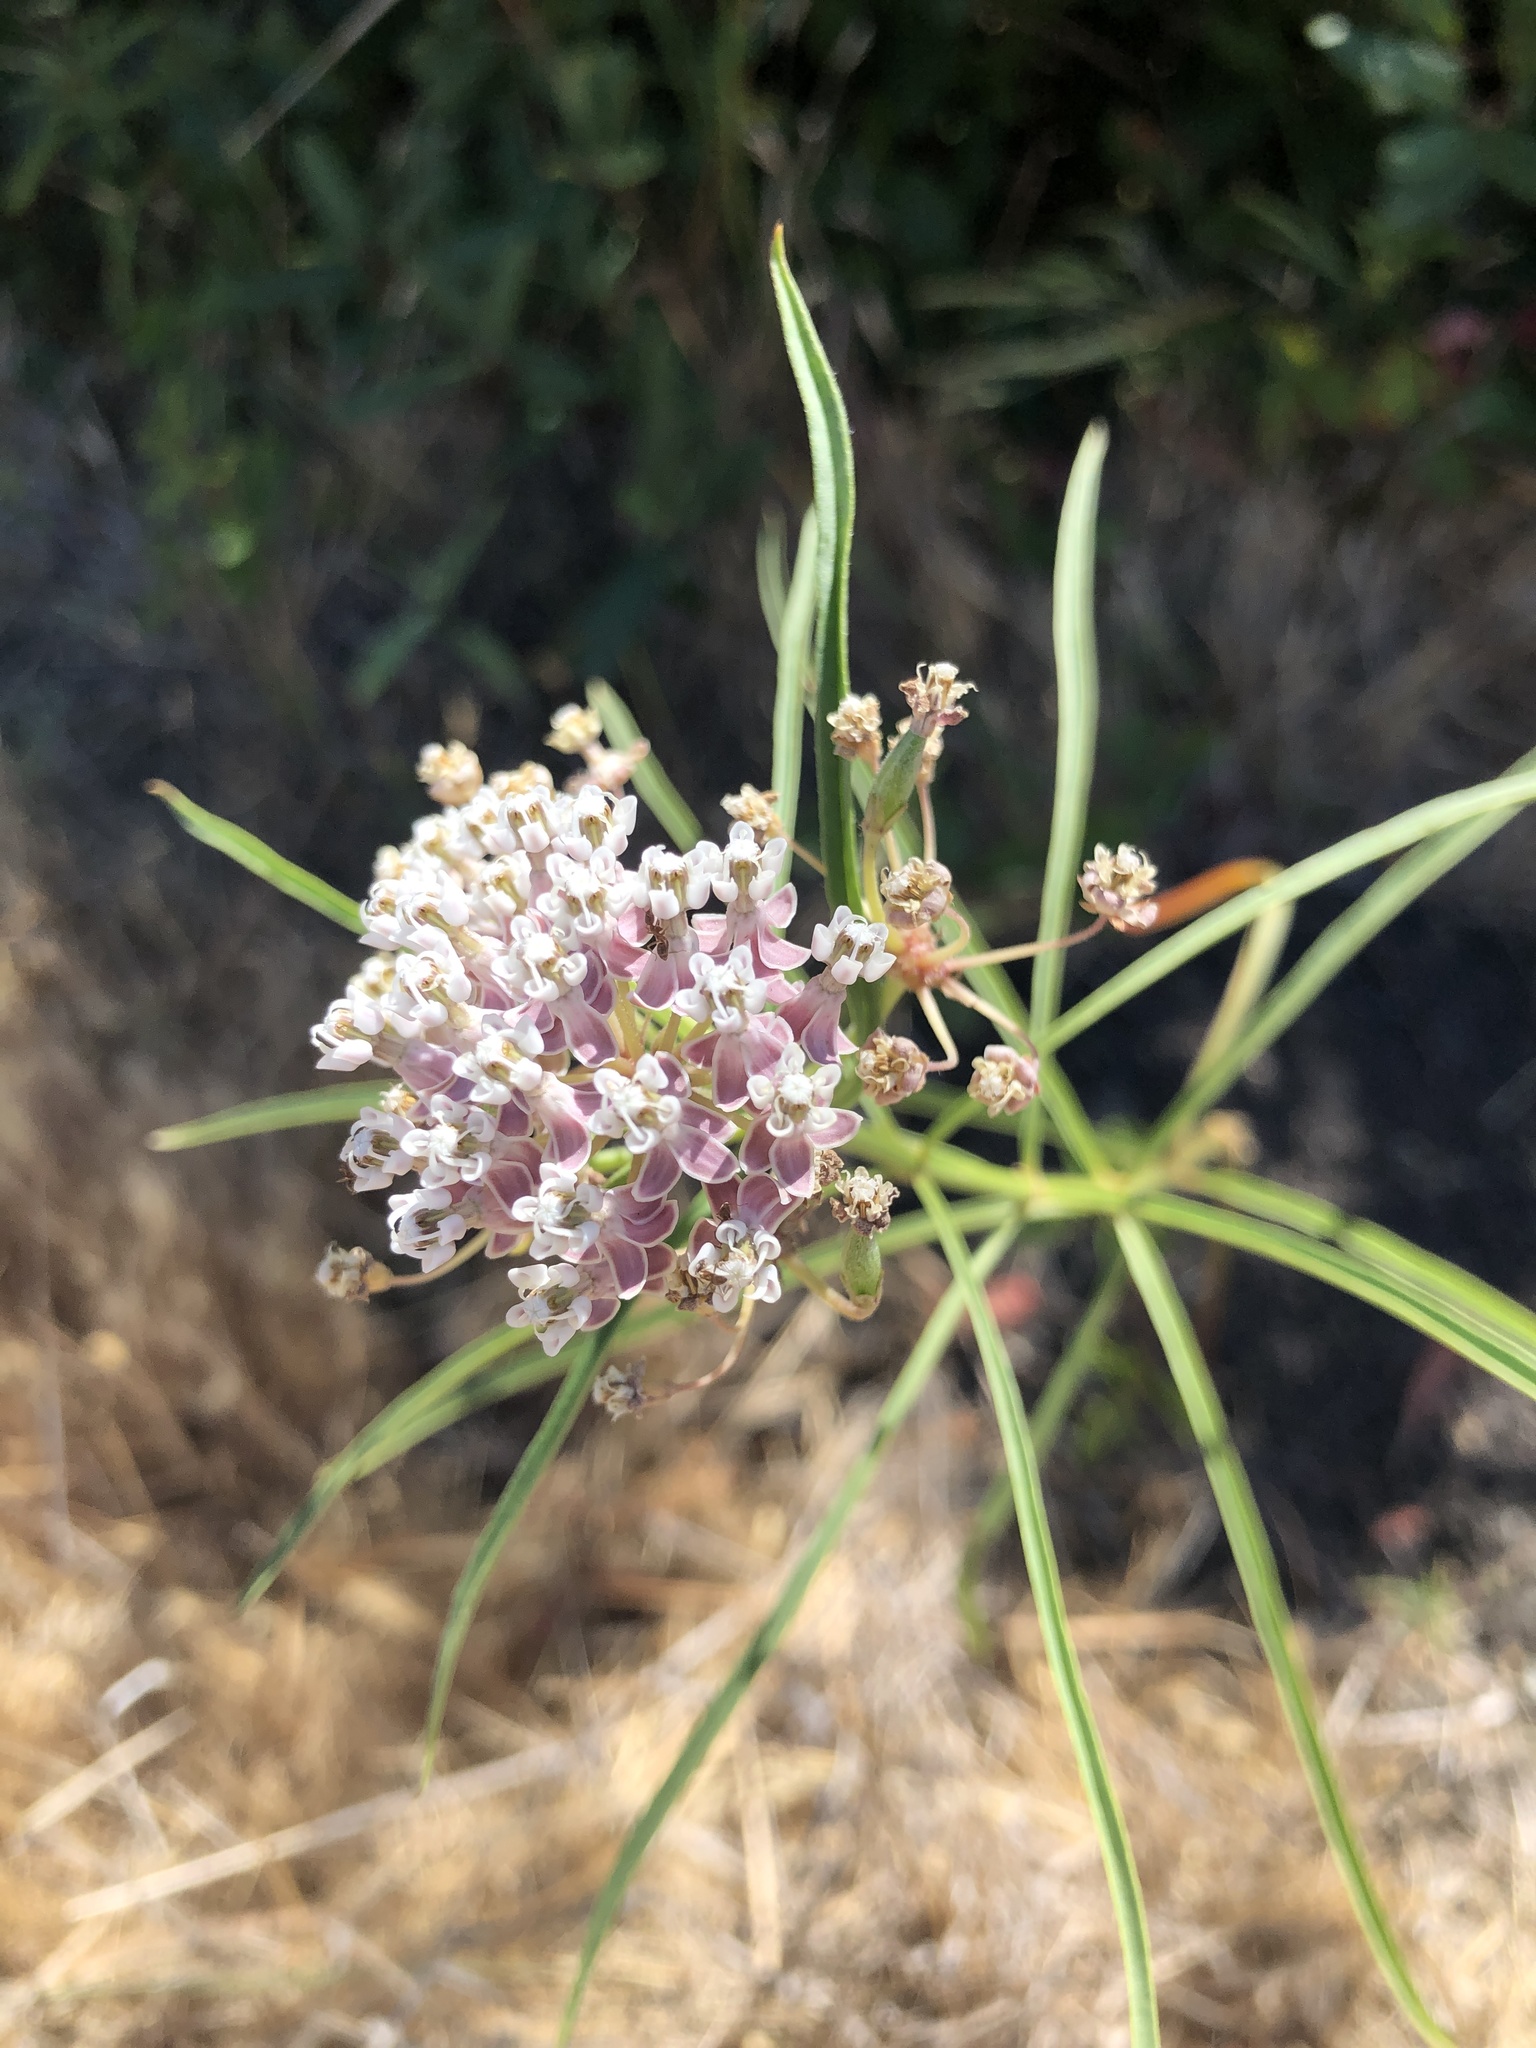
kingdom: Plantae
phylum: Tracheophyta
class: Magnoliopsida
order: Gentianales
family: Apocynaceae
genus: Asclepias
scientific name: Asclepias fascicularis
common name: Mexican milkweed
